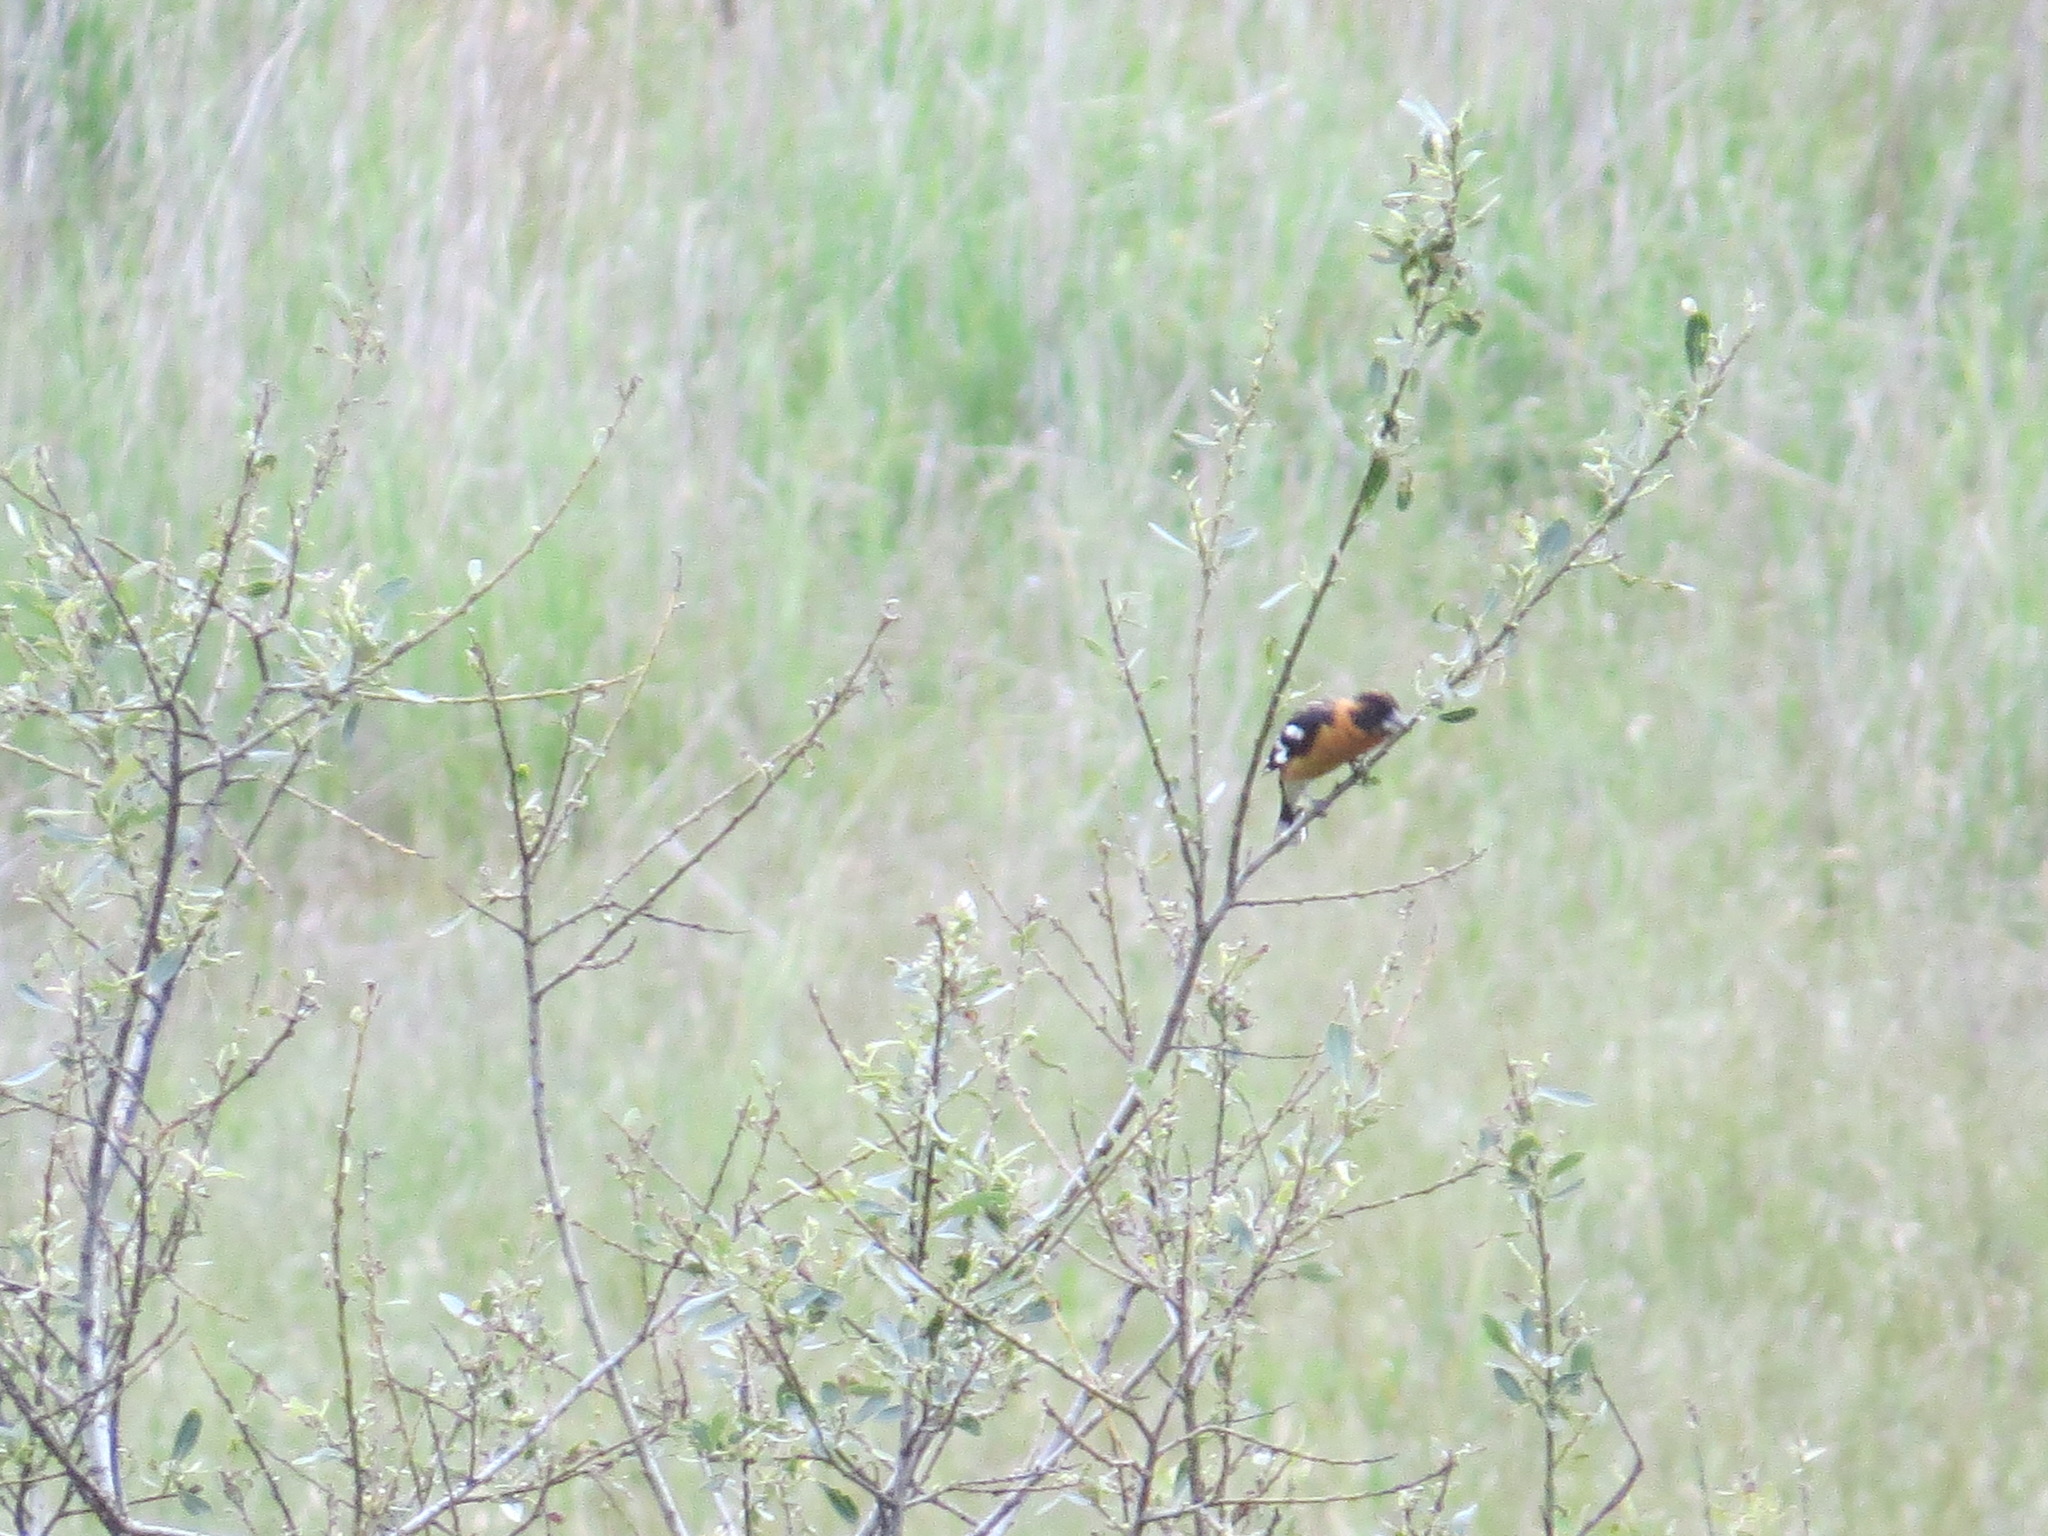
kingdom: Animalia
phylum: Chordata
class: Aves
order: Passeriformes
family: Cardinalidae
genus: Pheucticus
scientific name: Pheucticus melanocephalus
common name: Black-headed grosbeak
